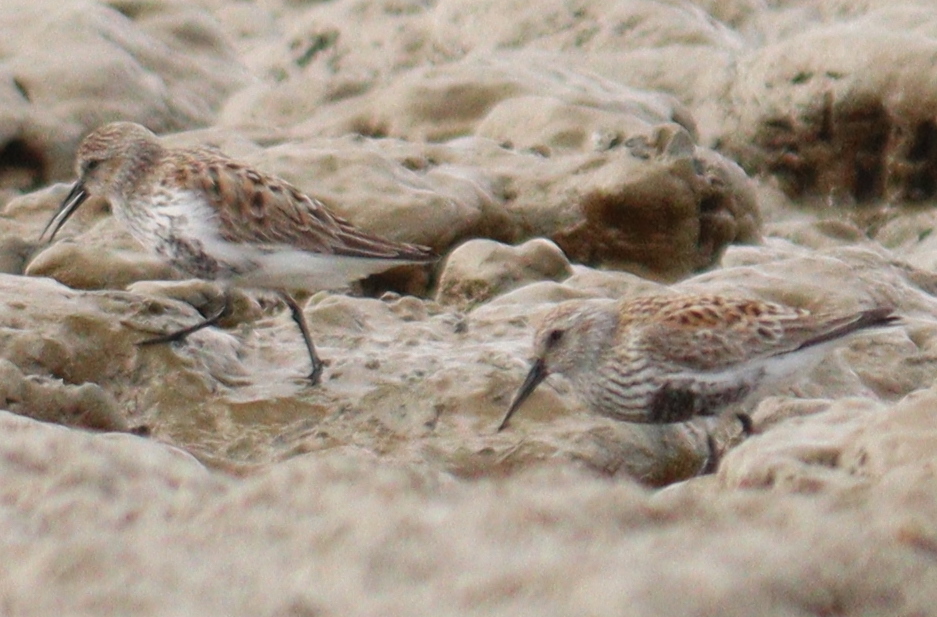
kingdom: Animalia
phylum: Chordata
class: Aves
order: Charadriiformes
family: Scolopacidae
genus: Calidris
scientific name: Calidris alpina
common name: Dunlin
